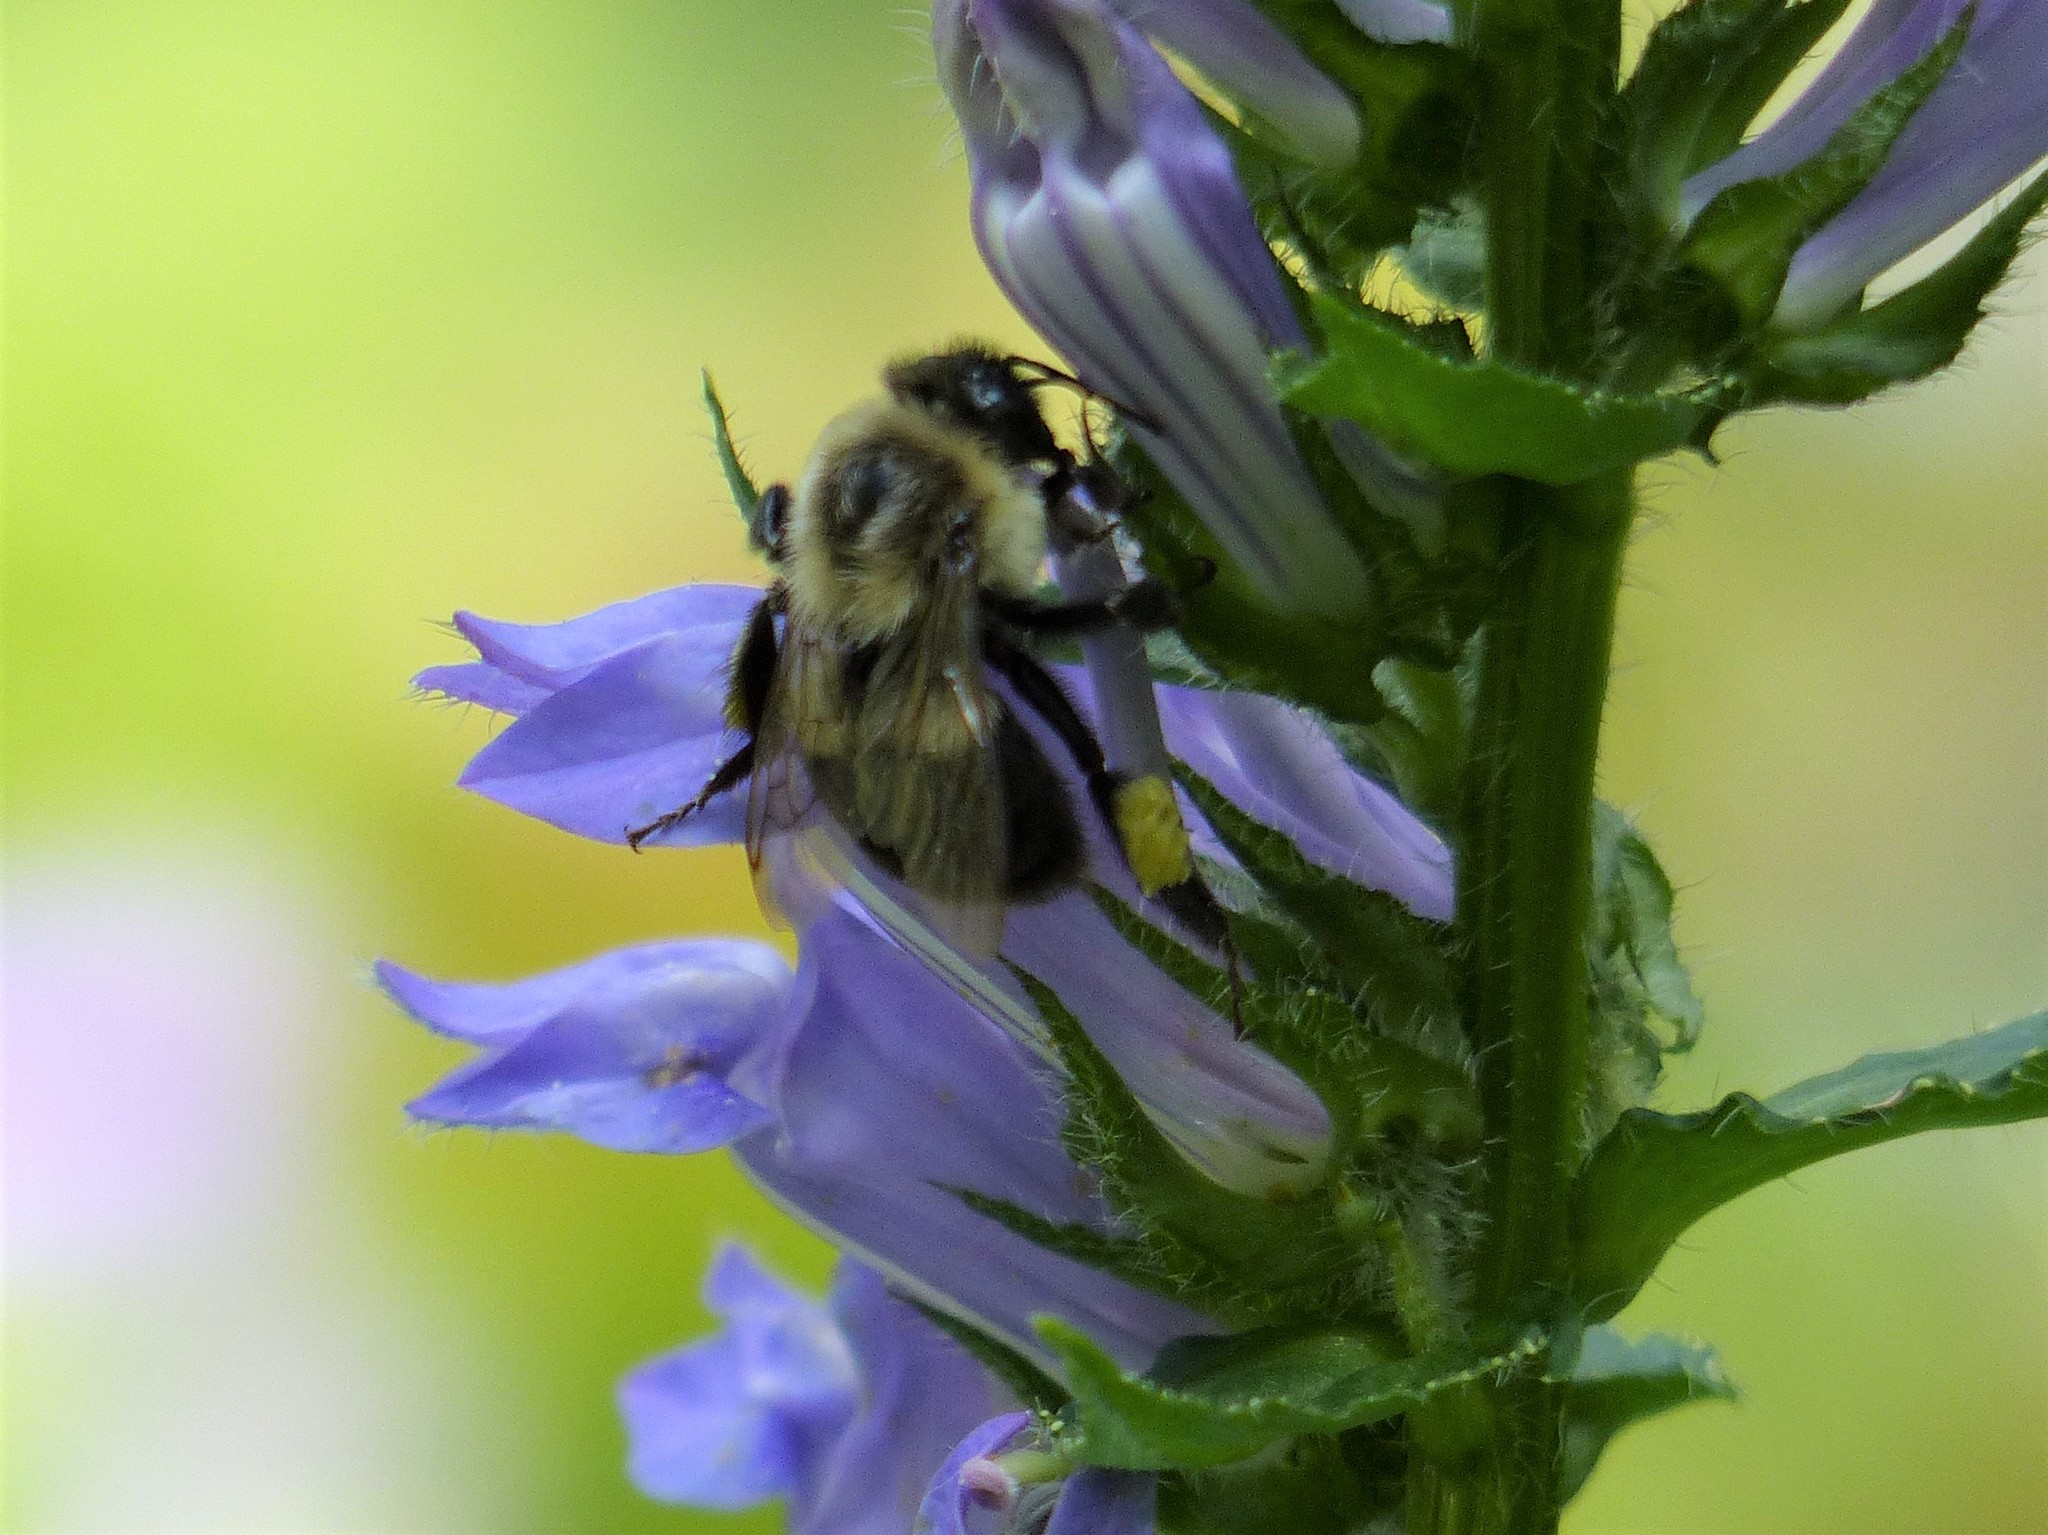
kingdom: Animalia
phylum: Arthropoda
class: Insecta
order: Hymenoptera
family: Apidae
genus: Bombus
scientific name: Bombus impatiens
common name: Common eastern bumble bee
